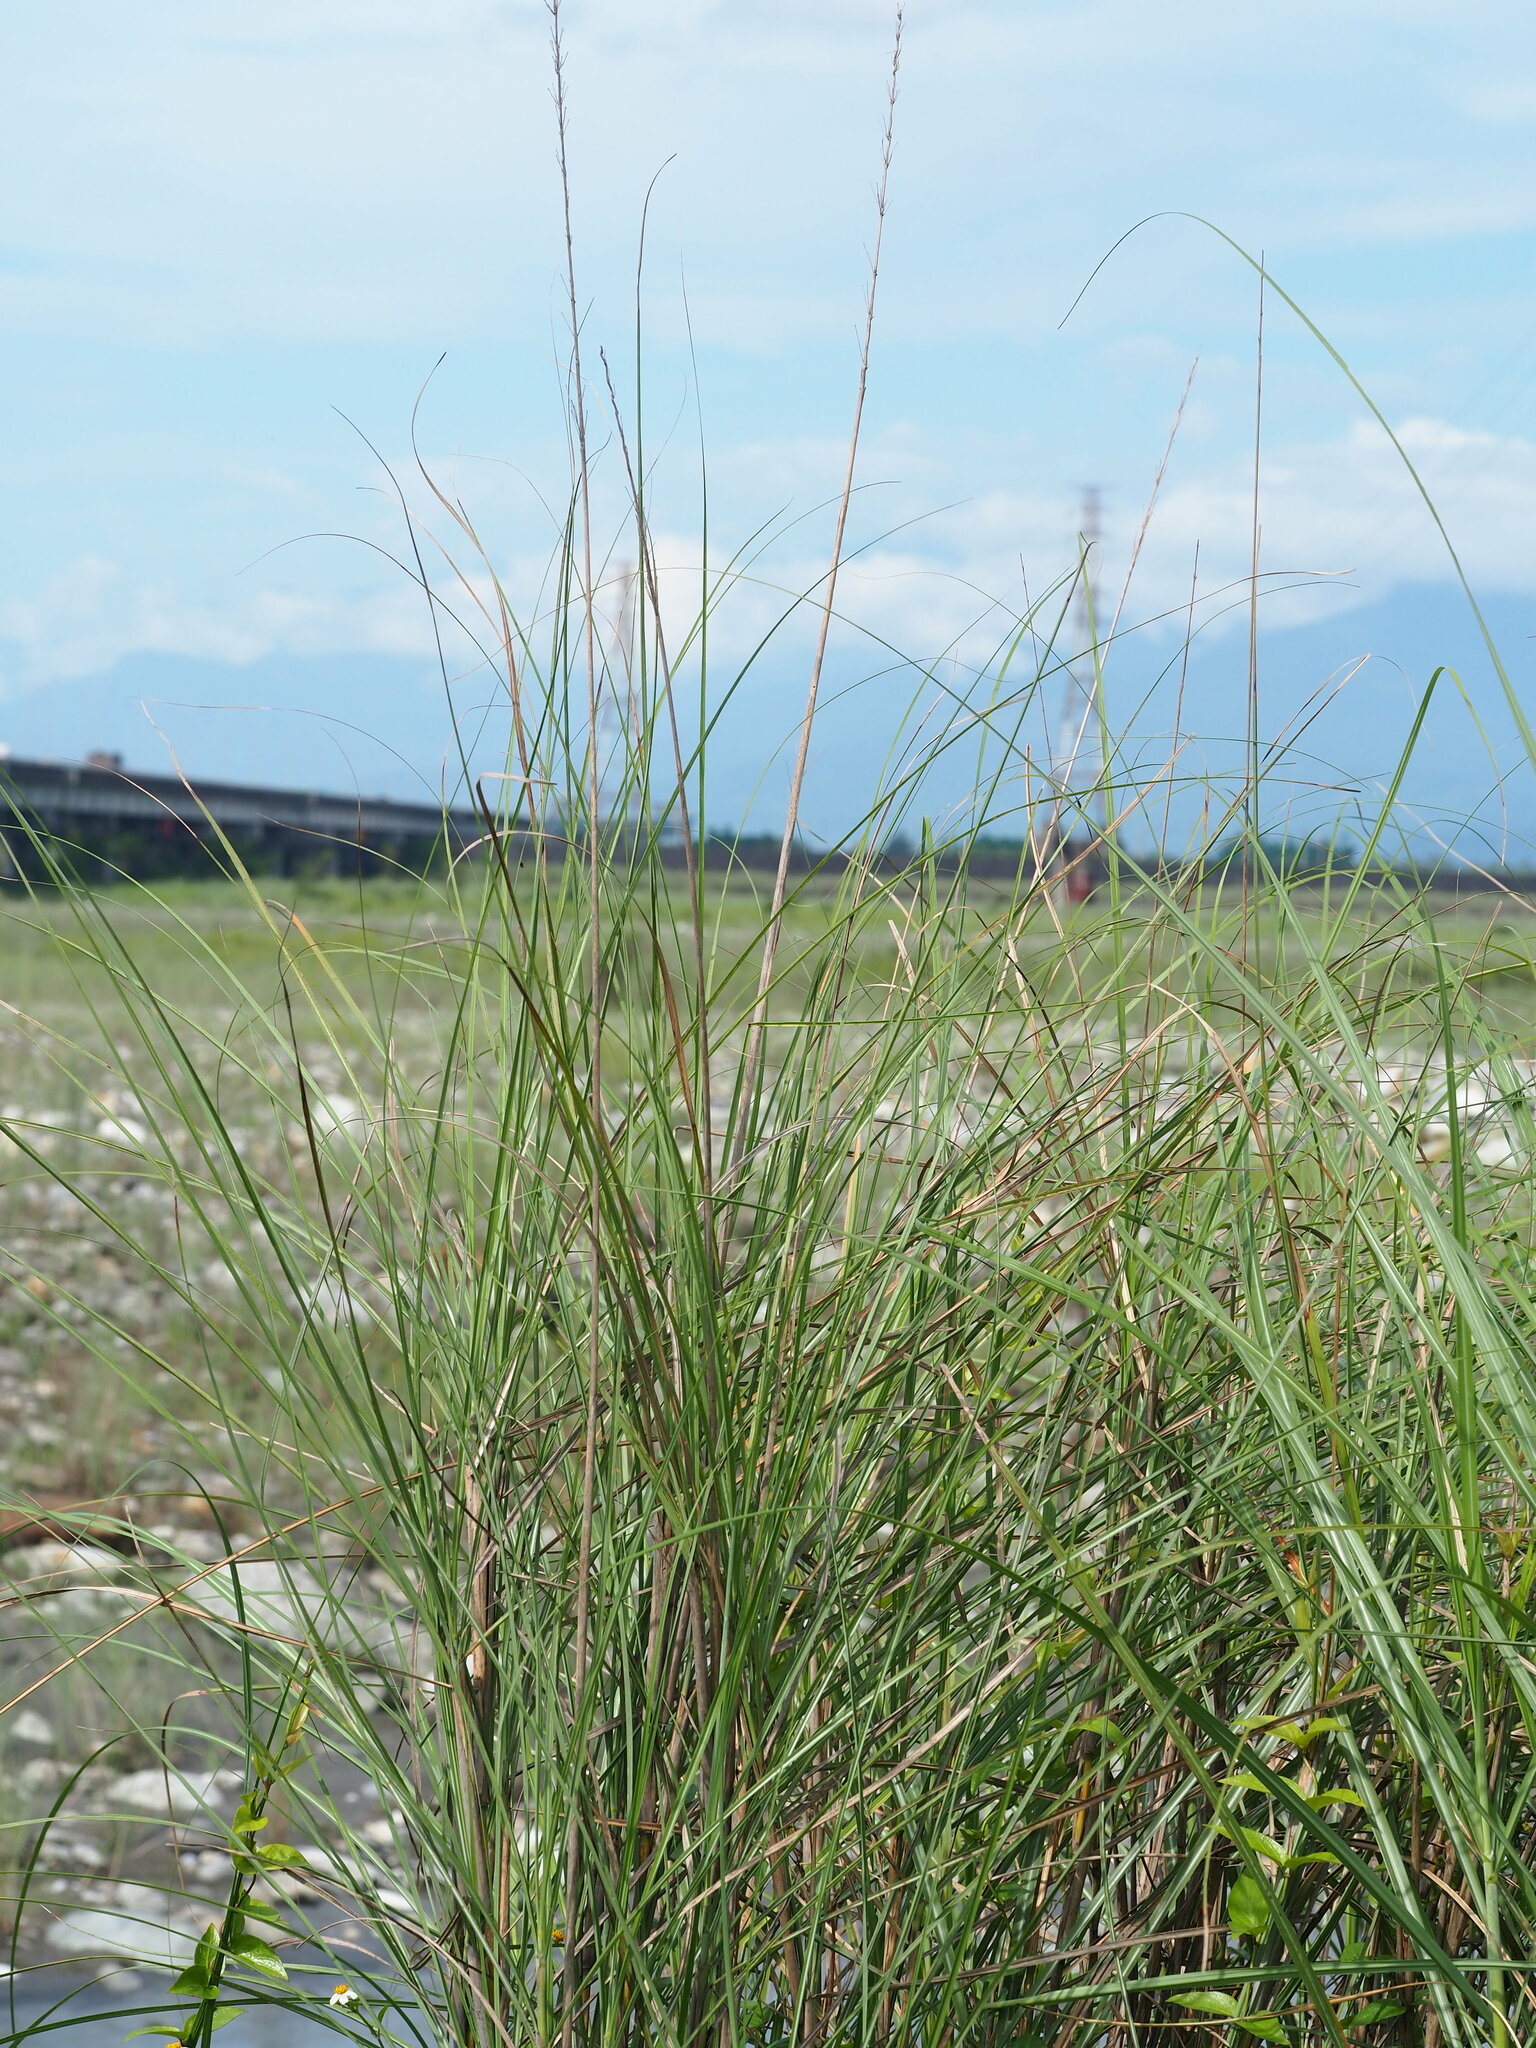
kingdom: Plantae
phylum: Tracheophyta
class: Liliopsida
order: Poales
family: Poaceae
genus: Saccharum
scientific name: Saccharum spontaneum
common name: Wild sugarcane
